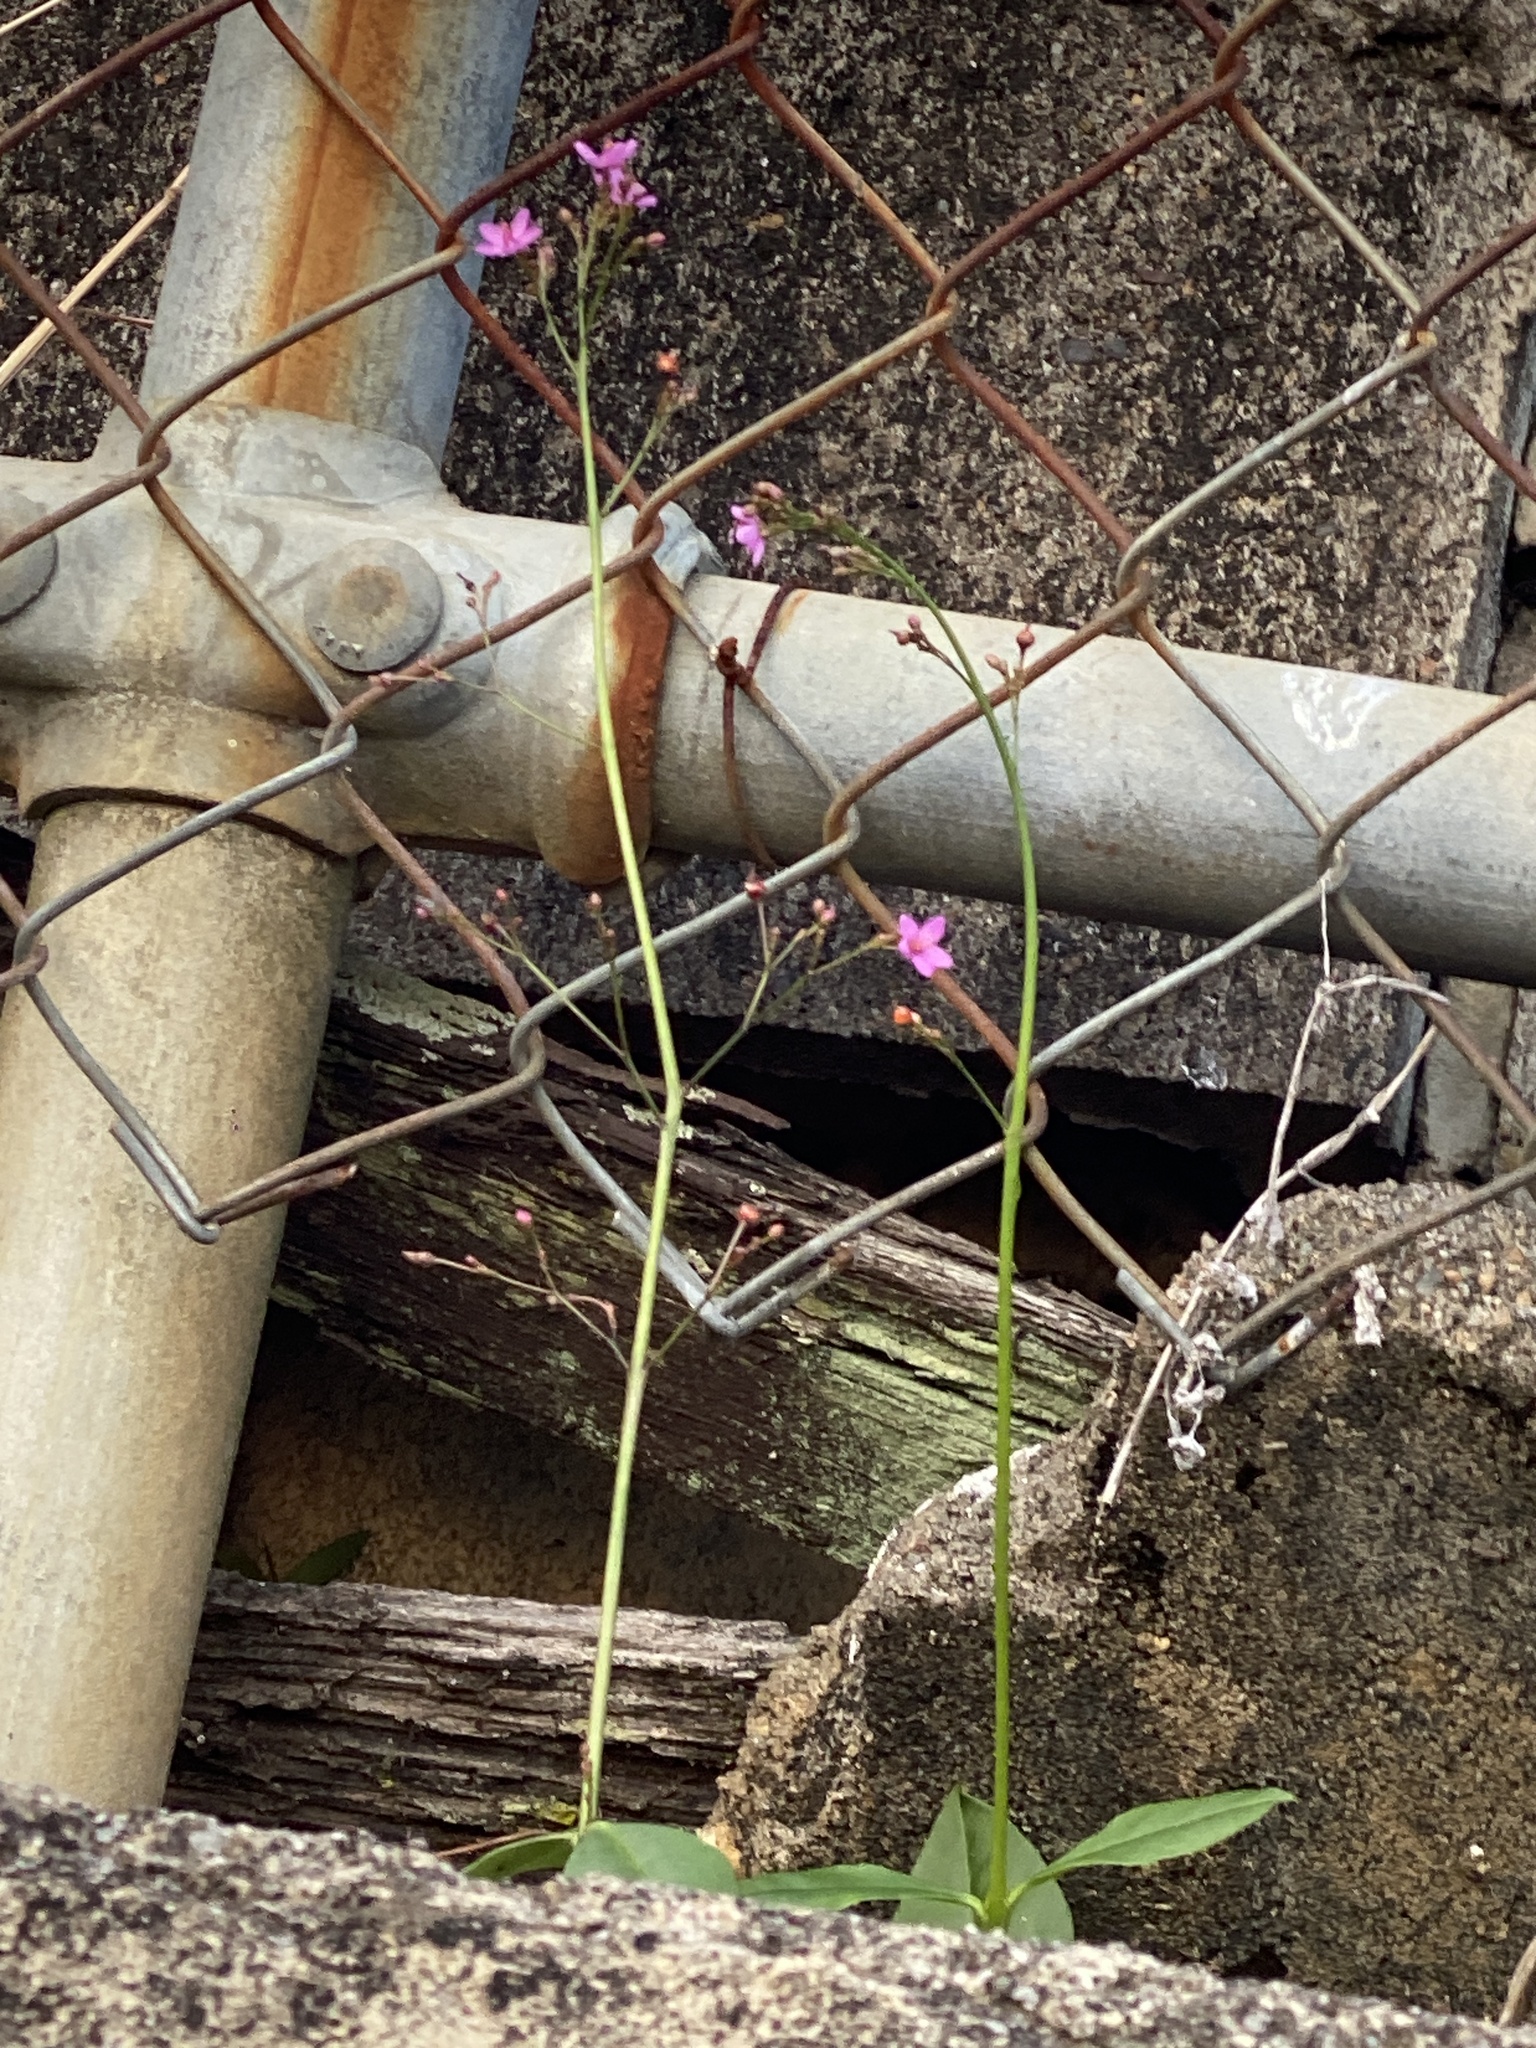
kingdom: Plantae
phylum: Tracheophyta
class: Magnoliopsida
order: Caryophyllales
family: Talinaceae
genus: Talinum
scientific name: Talinum paniculatum
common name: Jewels of opar
